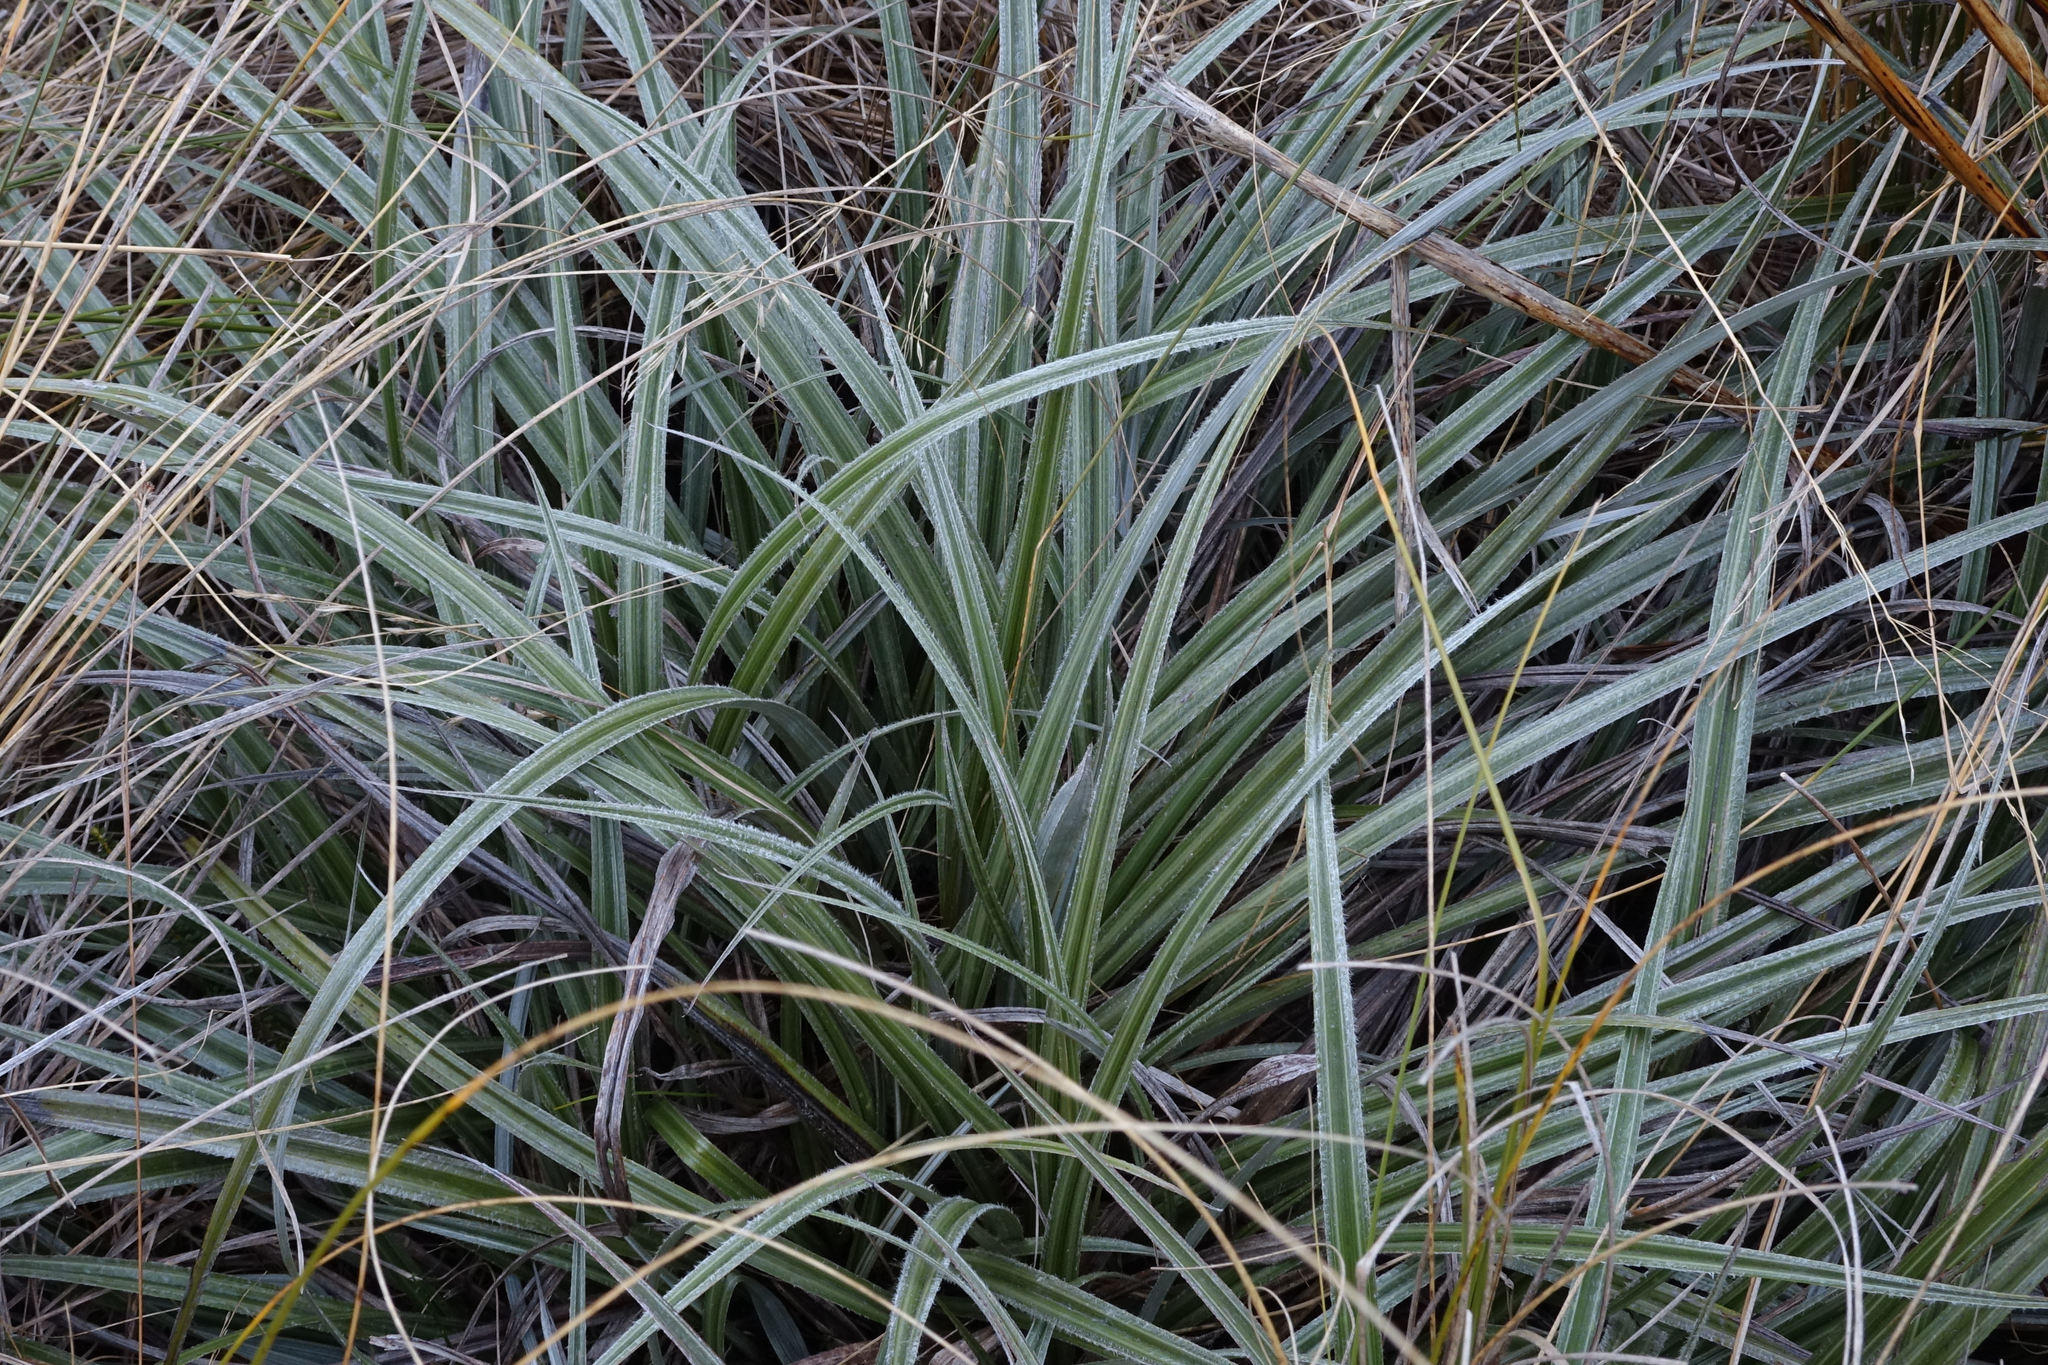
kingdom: Plantae
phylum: Tracheophyta
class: Liliopsida
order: Asparagales
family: Asteliaceae
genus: Astelia
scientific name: Astelia nervosa
